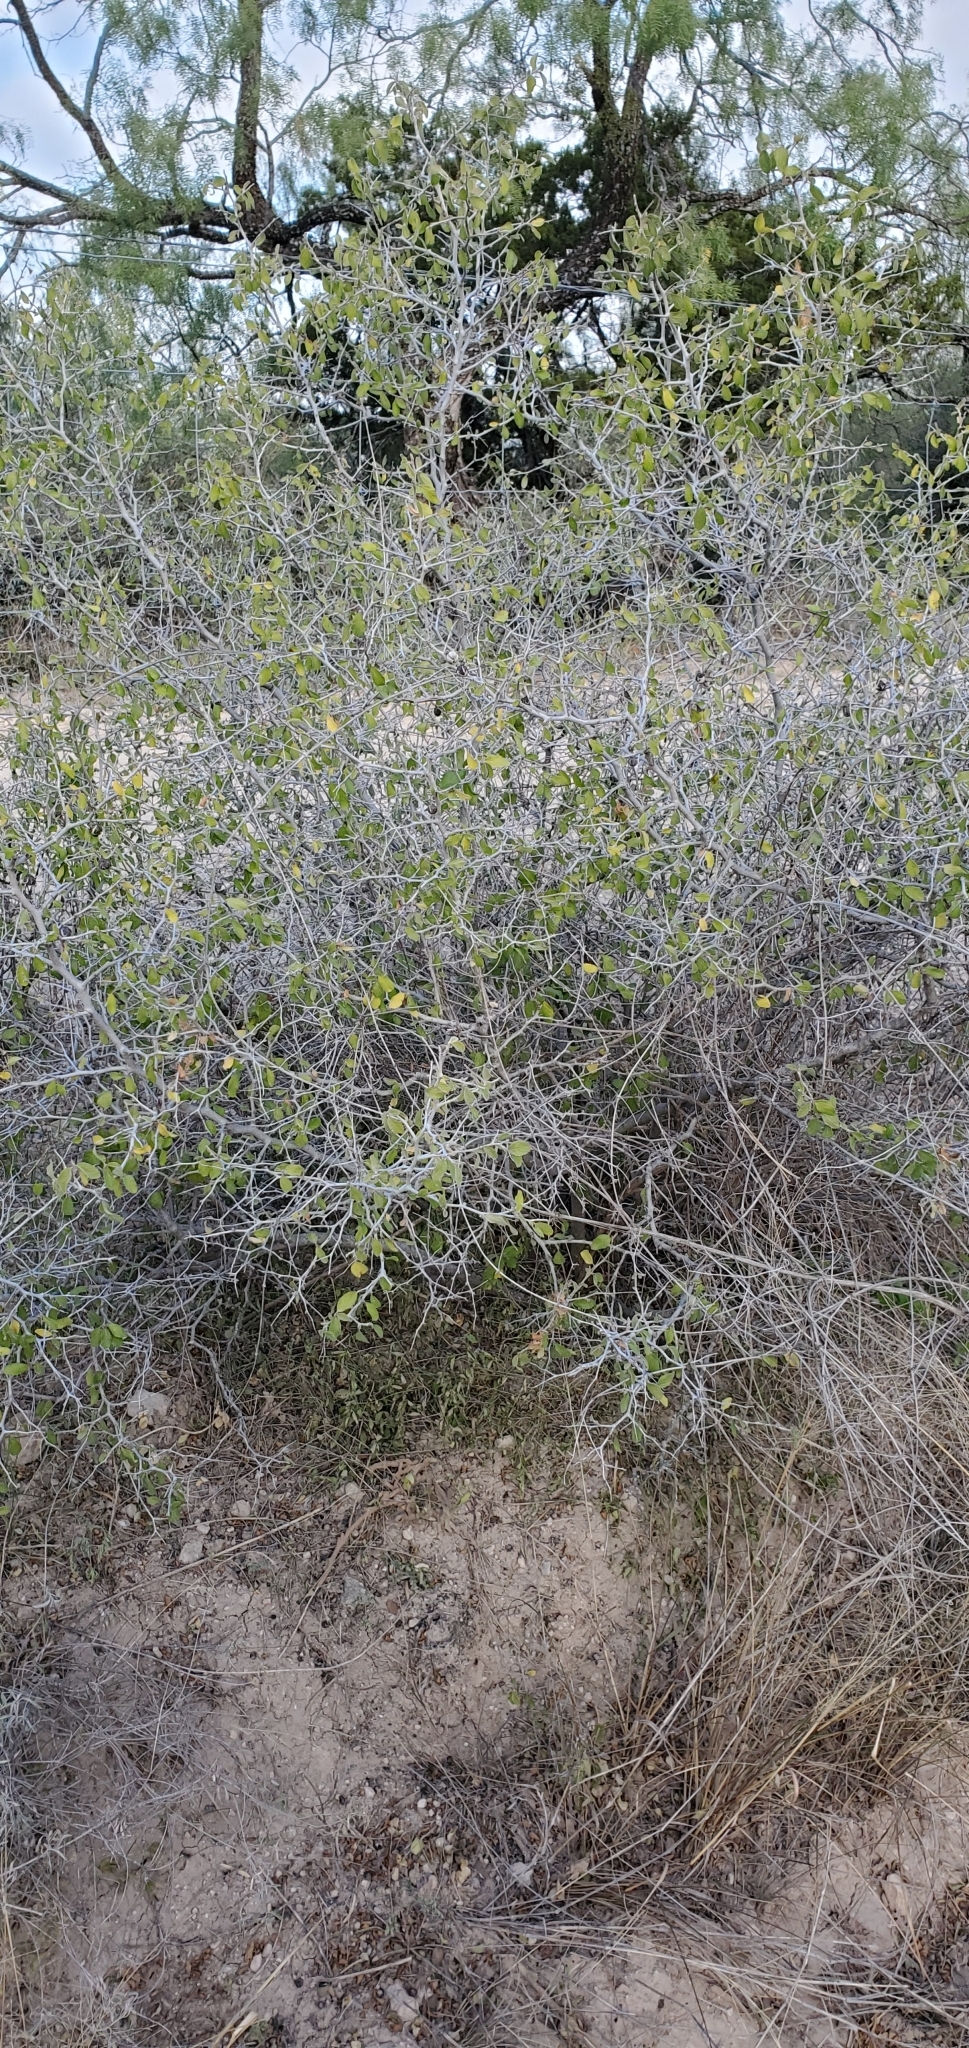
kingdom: Plantae
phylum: Tracheophyta
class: Magnoliopsida
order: Rosales
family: Rhamnaceae
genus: Colubrina
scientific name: Colubrina texensis
